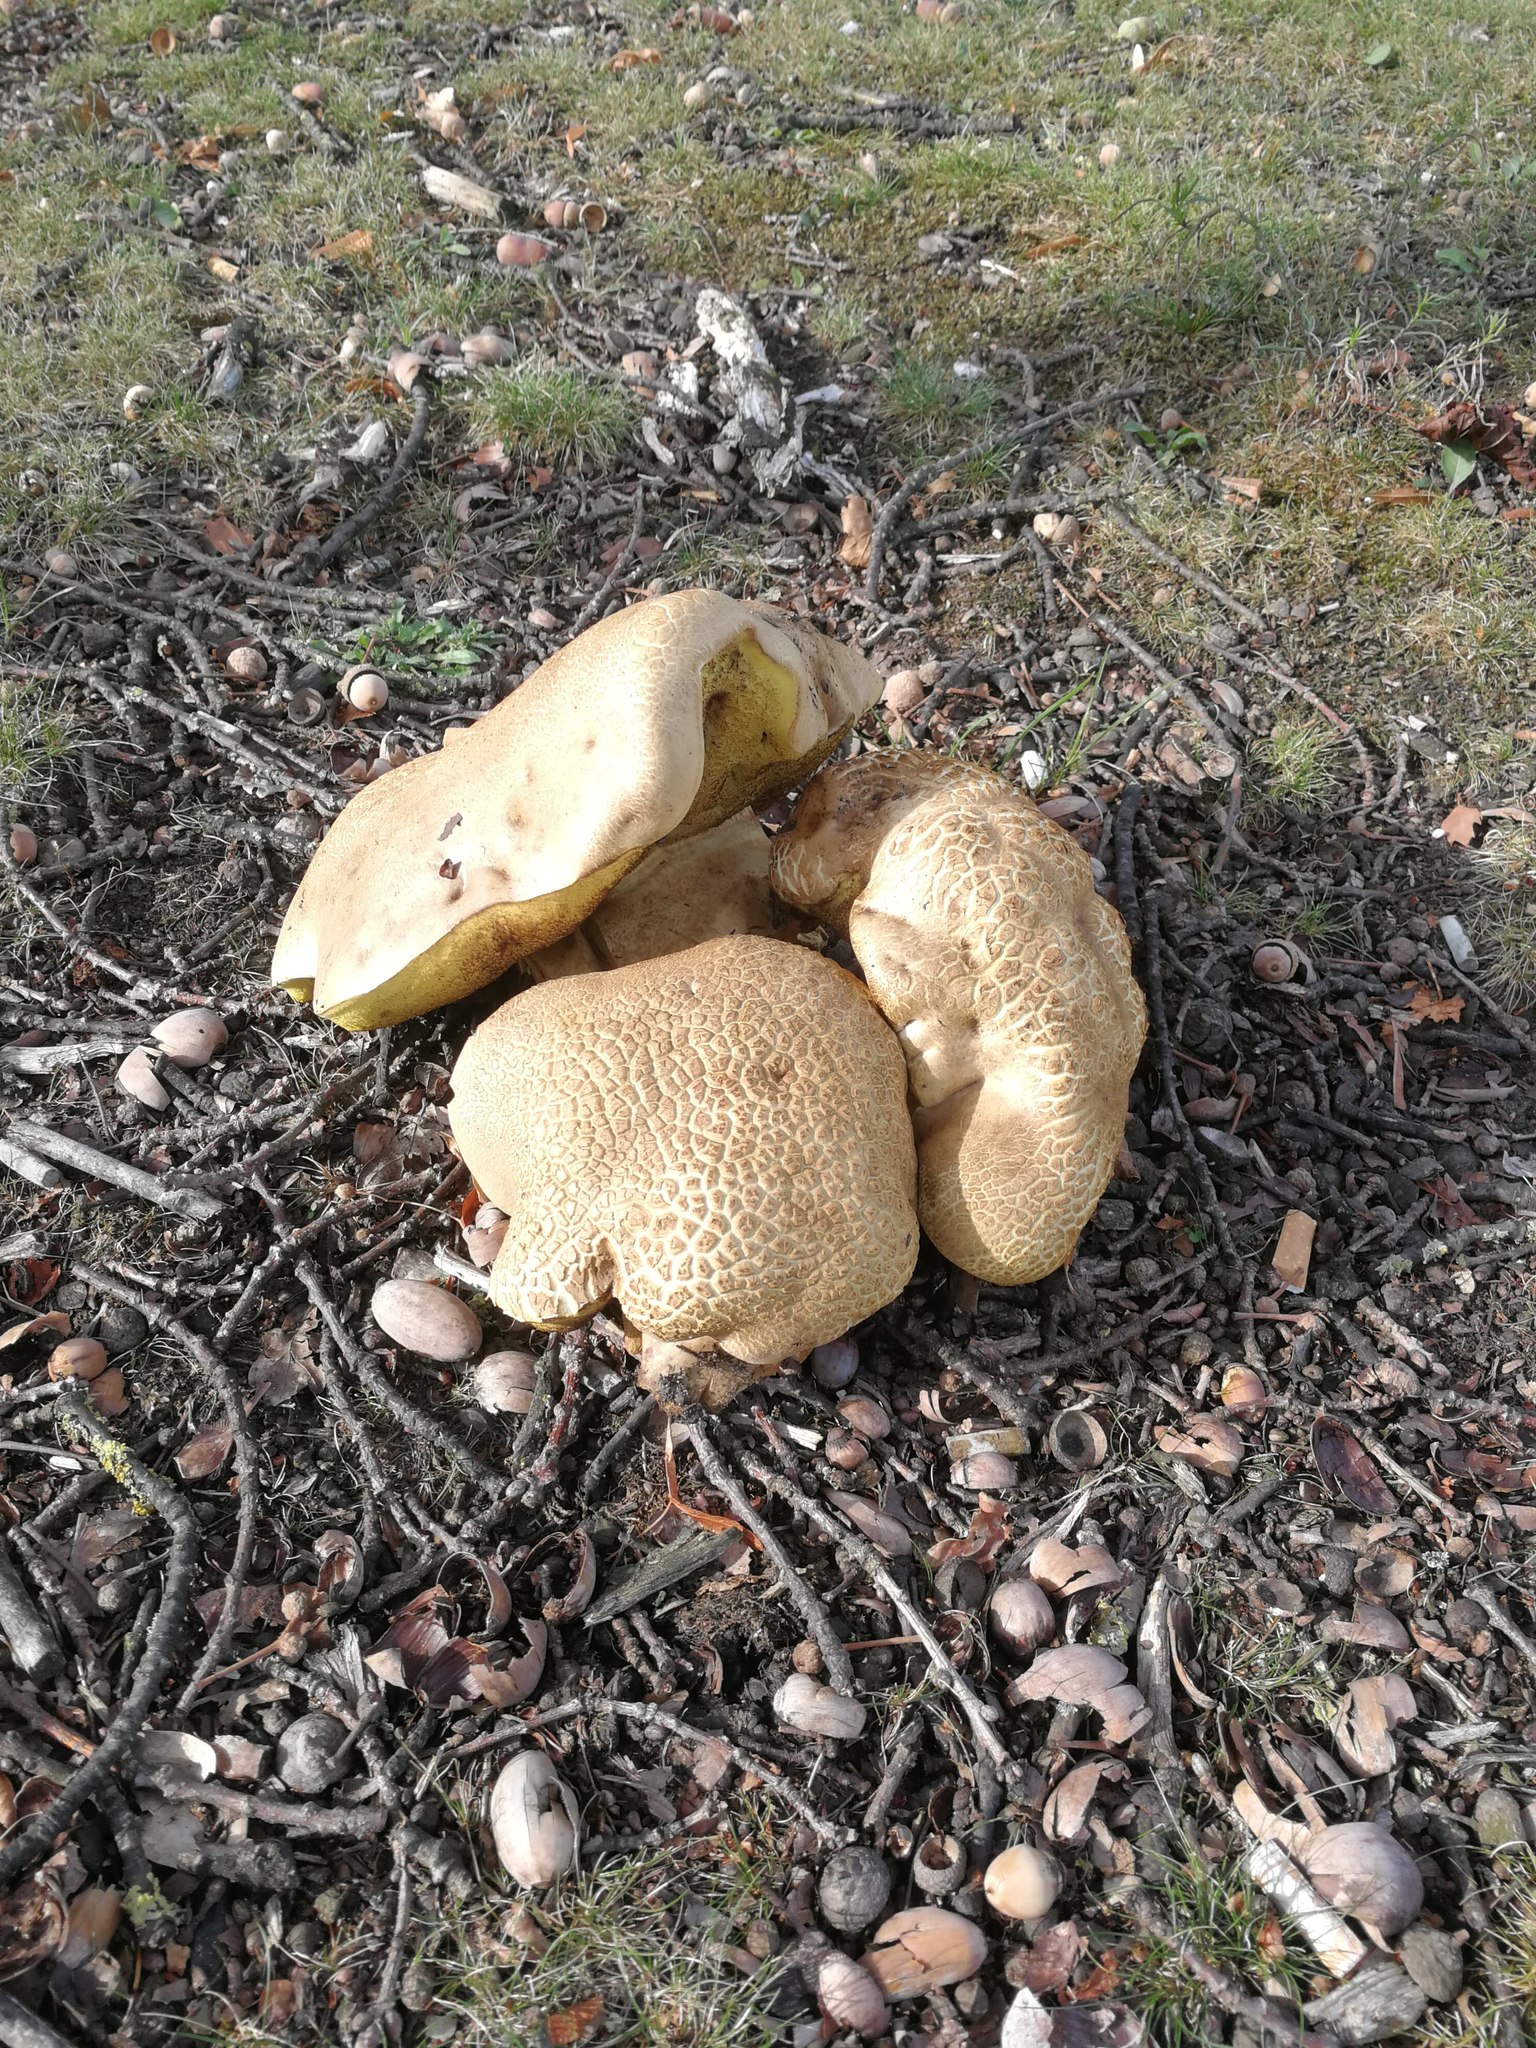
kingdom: Fungi
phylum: Basidiomycota
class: Agaricomycetes
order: Boletales
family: Boletaceae
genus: Caloboletus
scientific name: Caloboletus radicans
